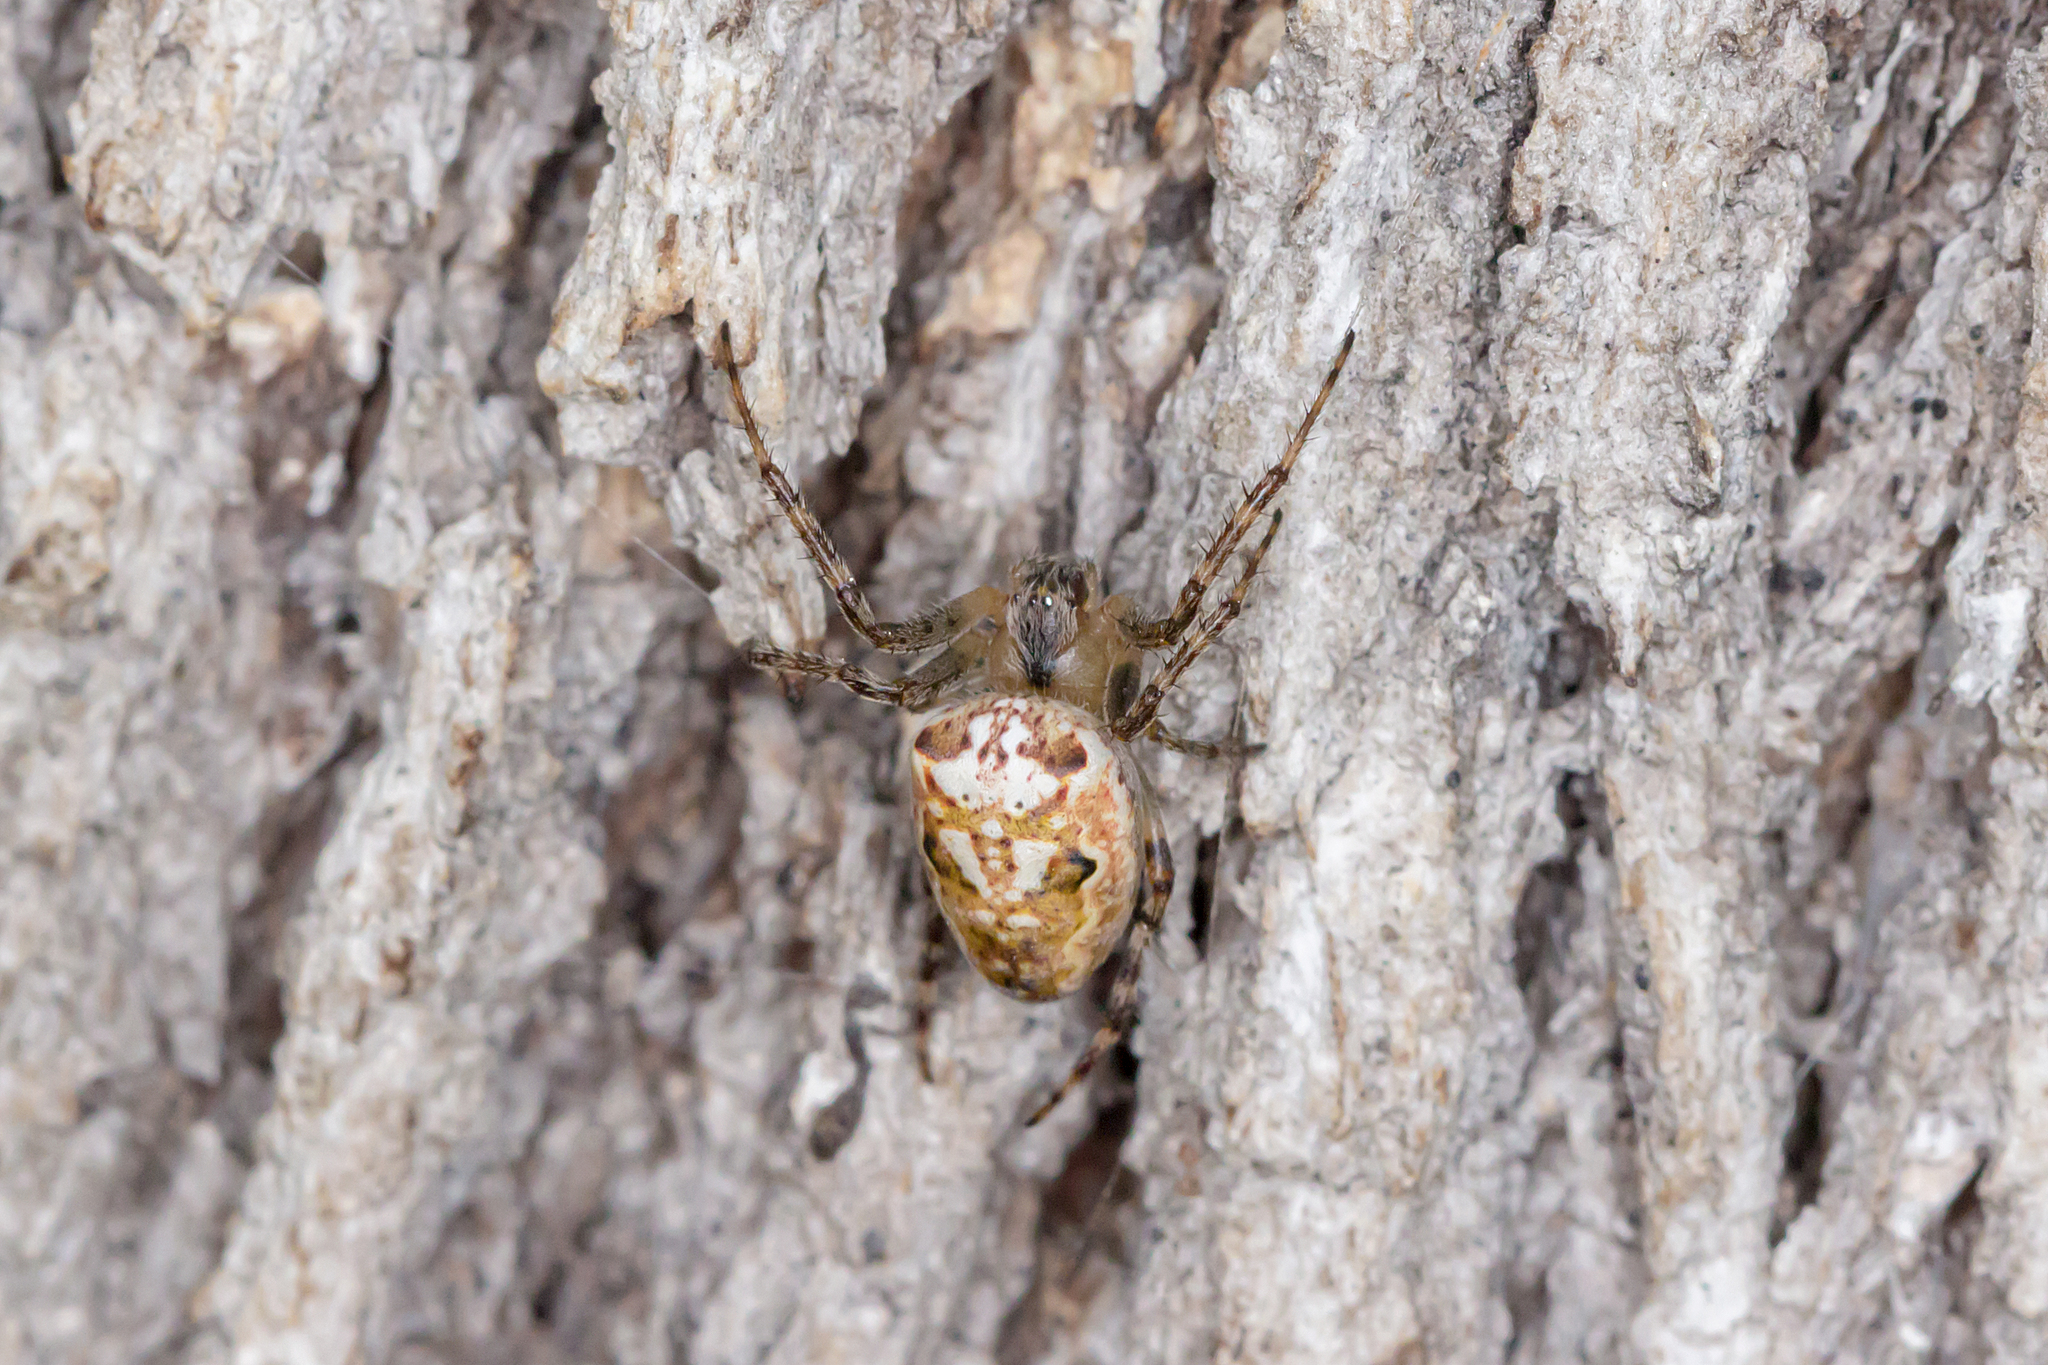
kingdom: Animalia
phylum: Arthropoda
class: Arachnida
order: Araneae
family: Araneidae
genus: Plebs
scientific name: Plebs eburnus
